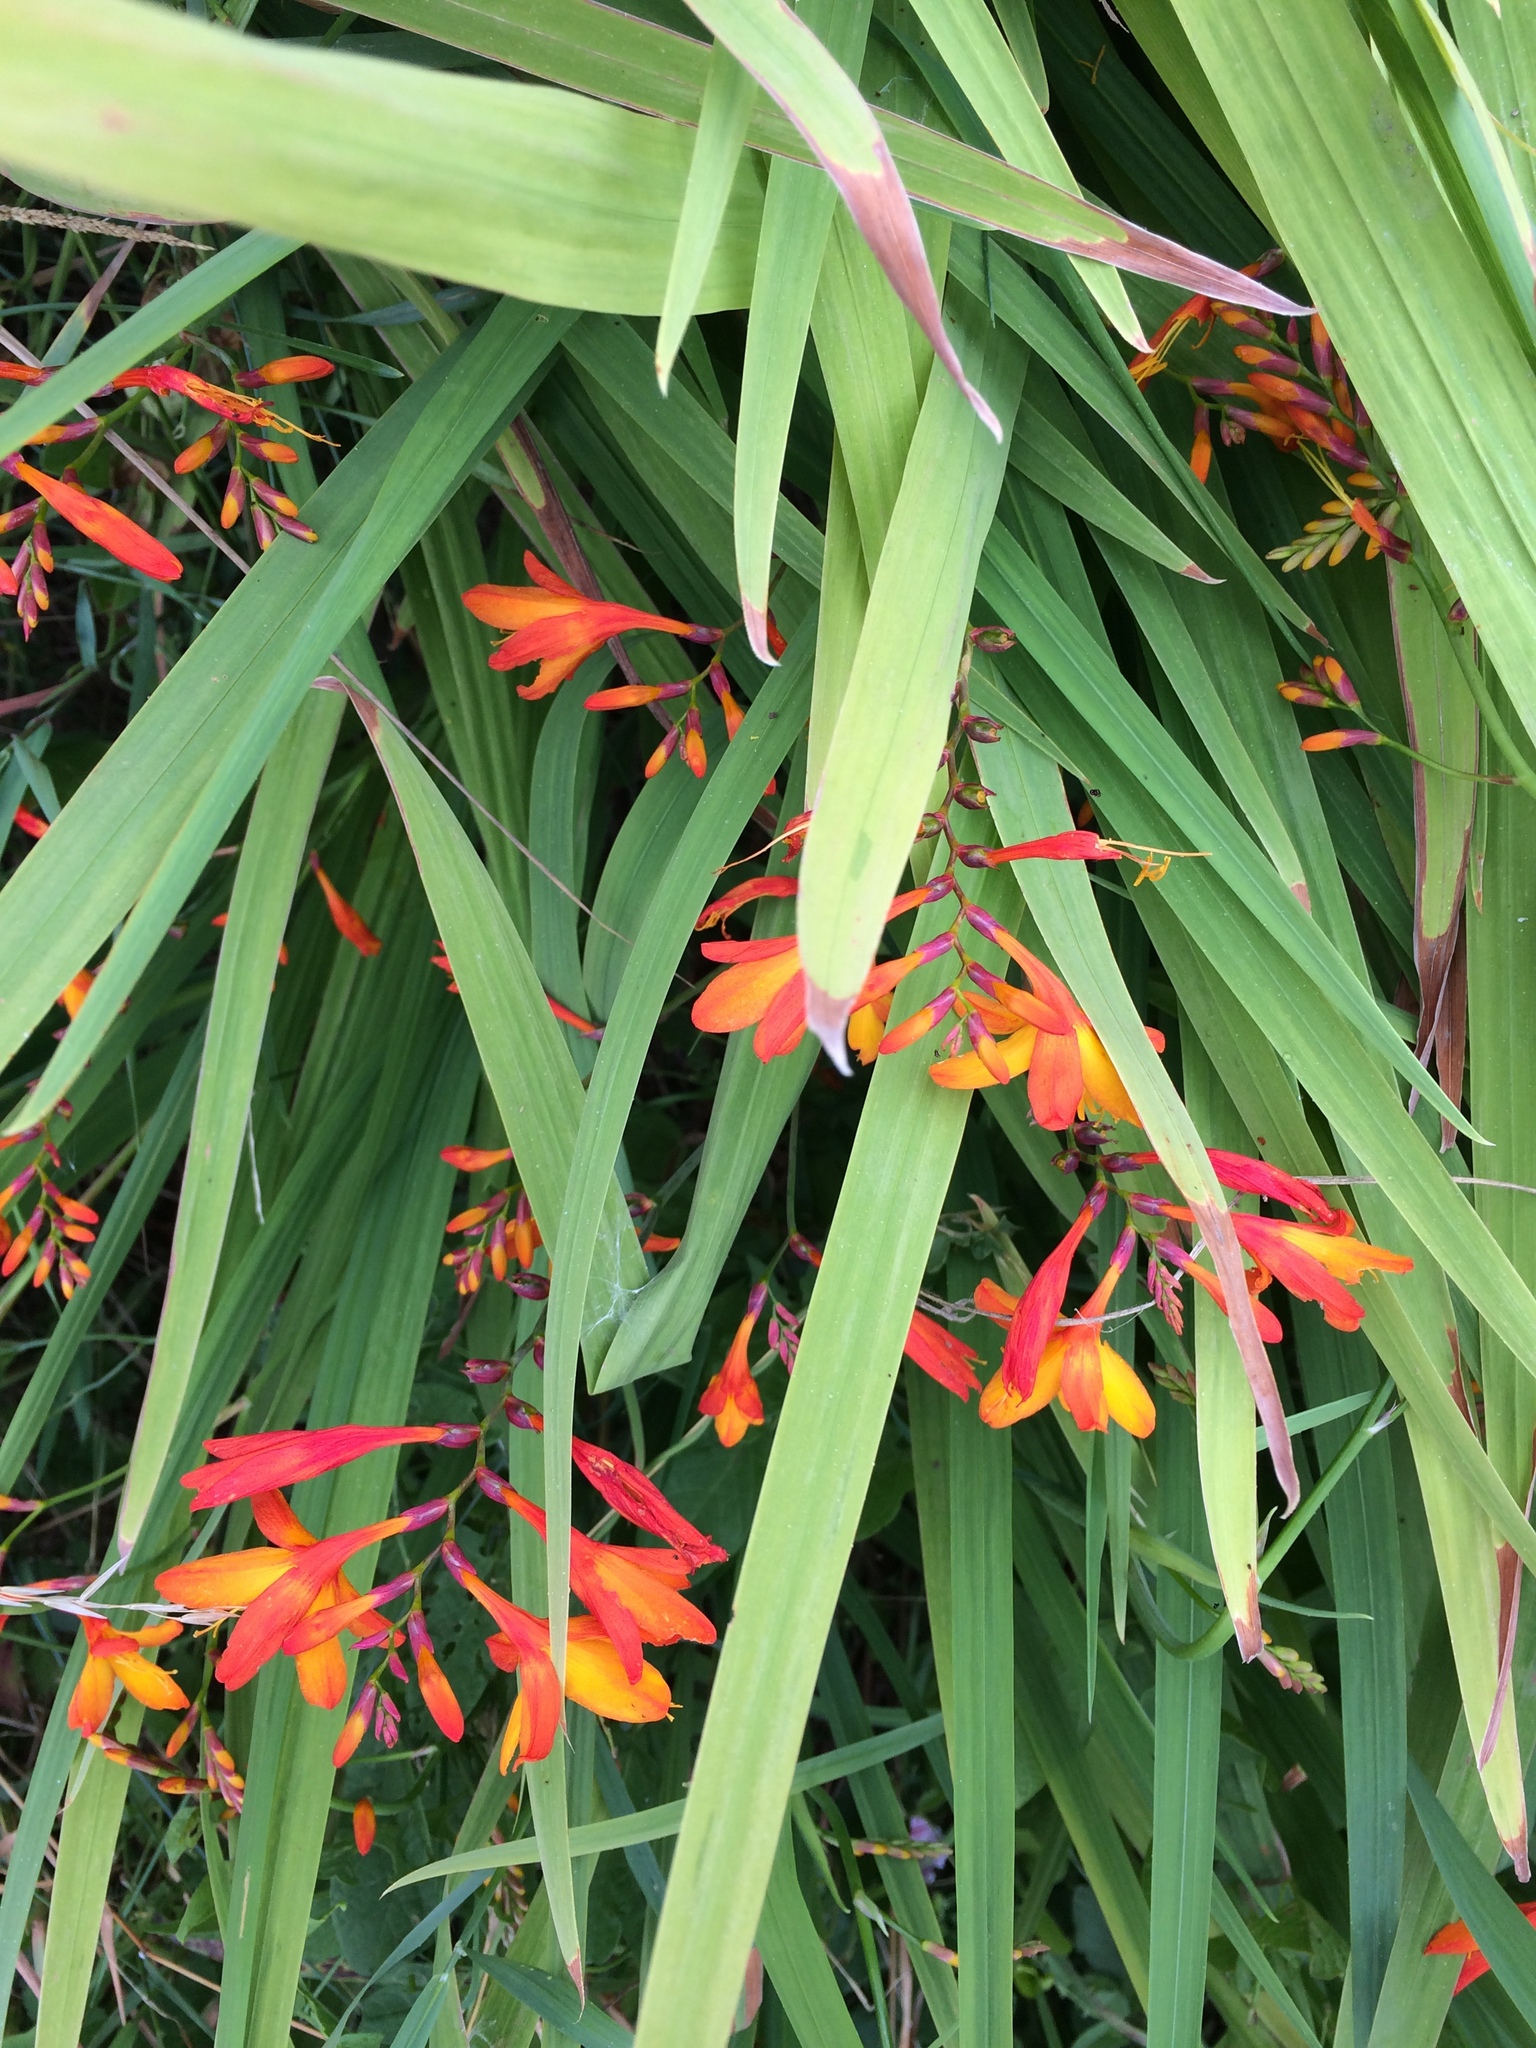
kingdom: Plantae
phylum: Tracheophyta
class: Liliopsida
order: Asparagales
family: Iridaceae
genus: Crocosmia
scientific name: Crocosmia crocosmiiflora
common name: Montbretia
